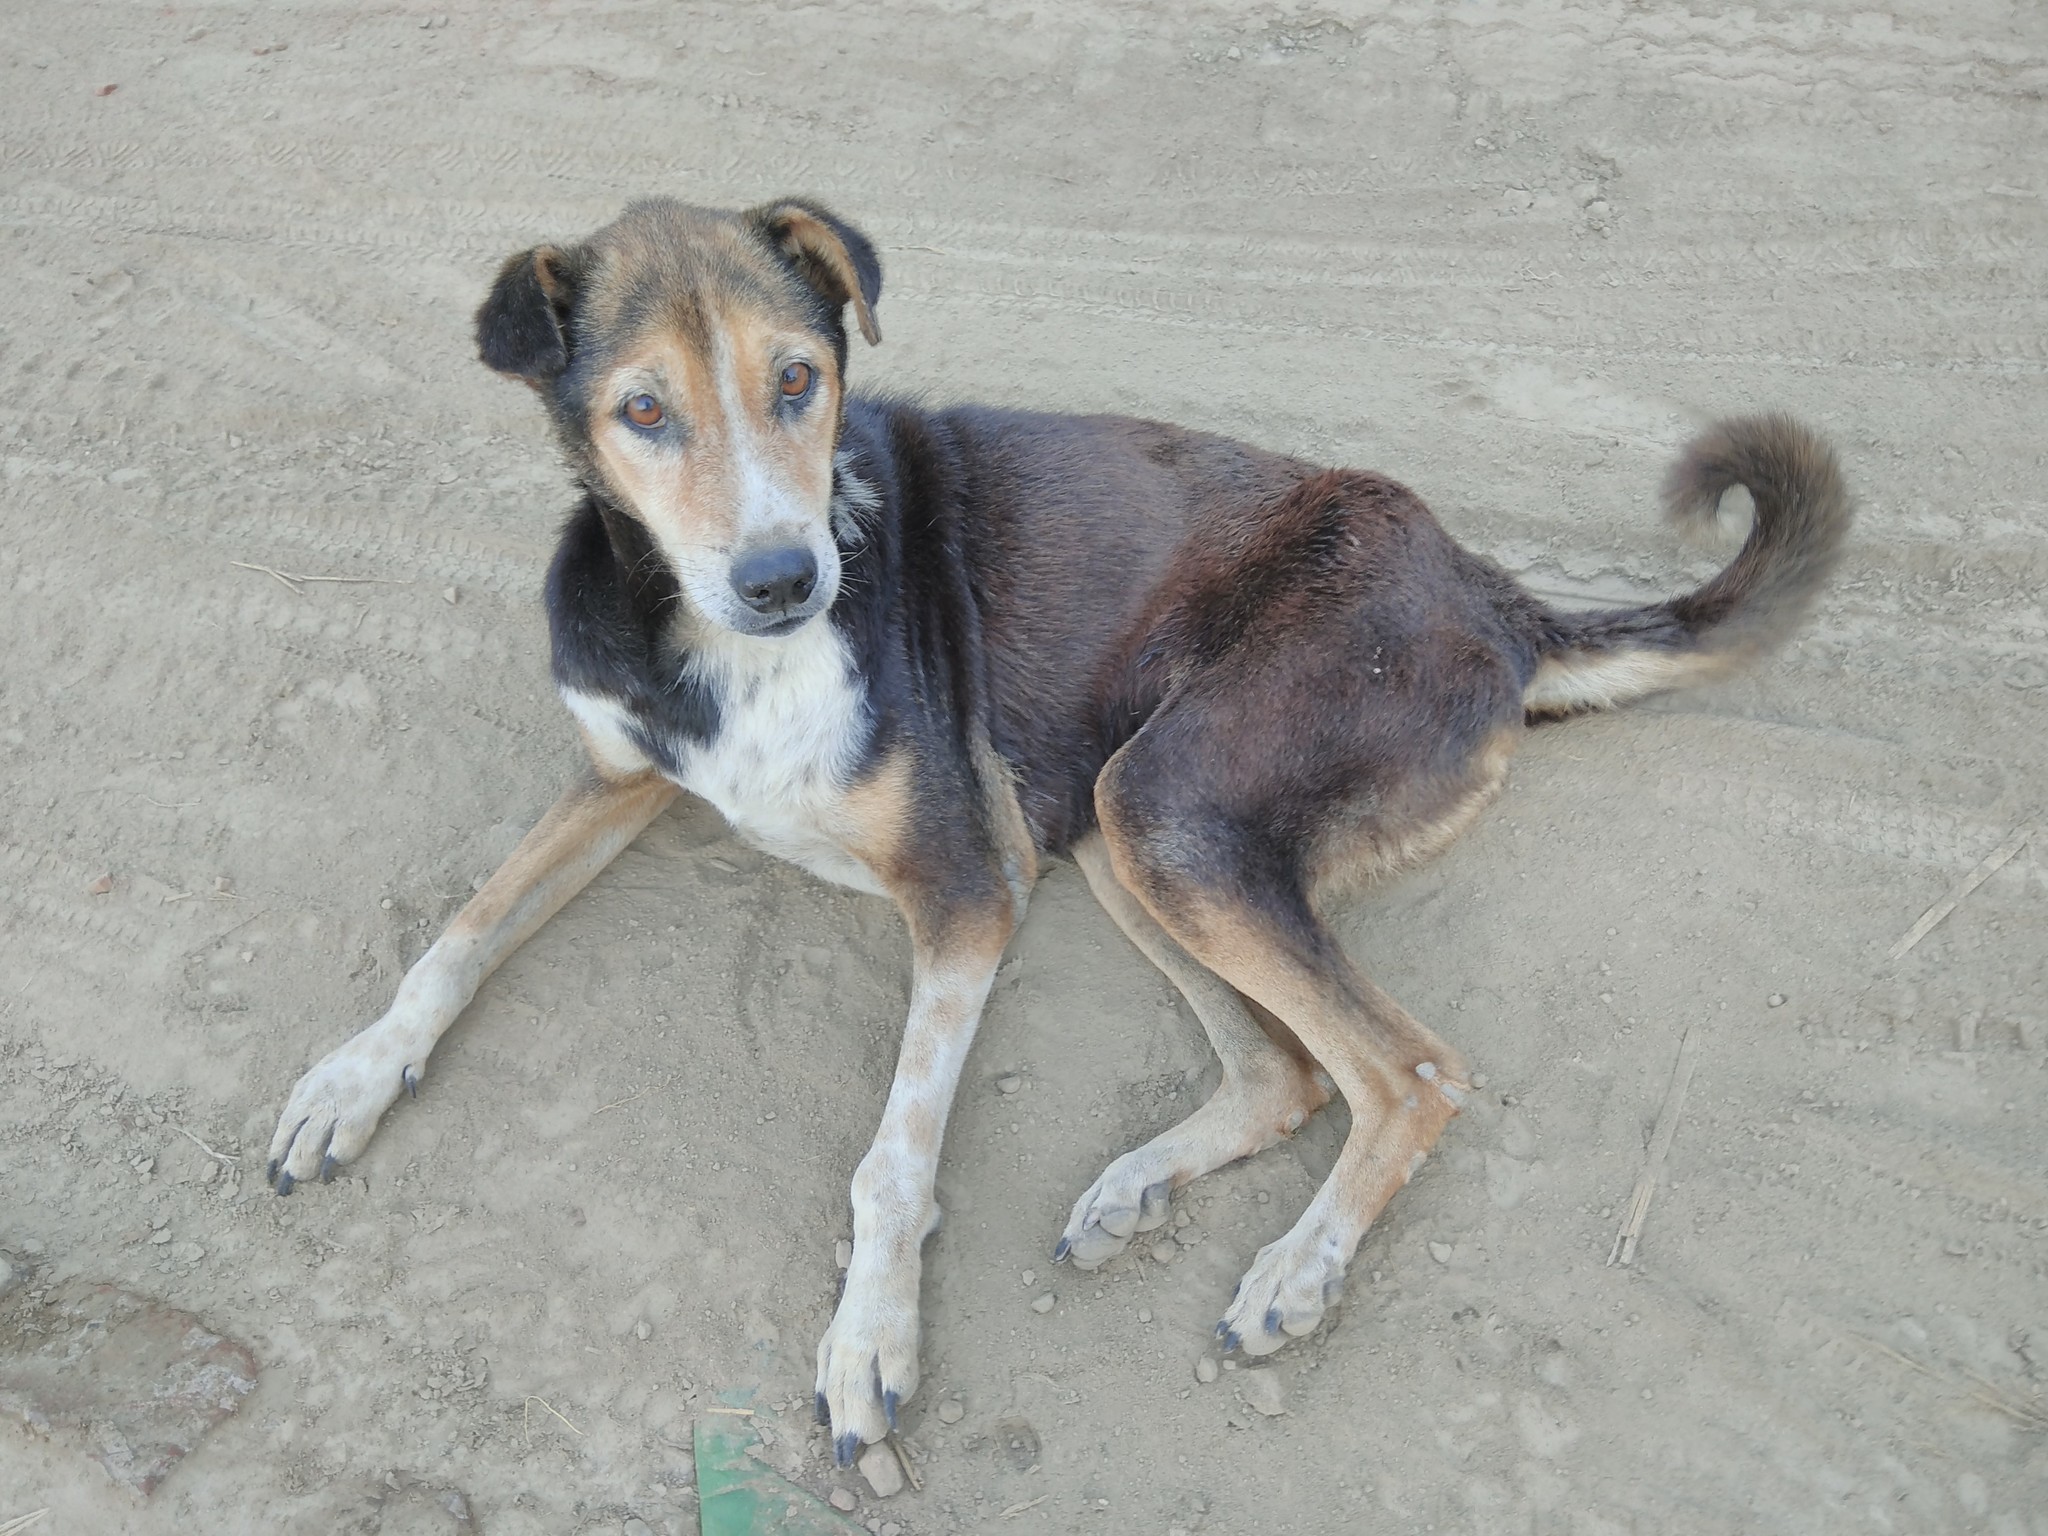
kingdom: Animalia
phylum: Chordata
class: Mammalia
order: Carnivora
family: Canidae
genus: Canis
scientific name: Canis lupus
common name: Gray wolf
